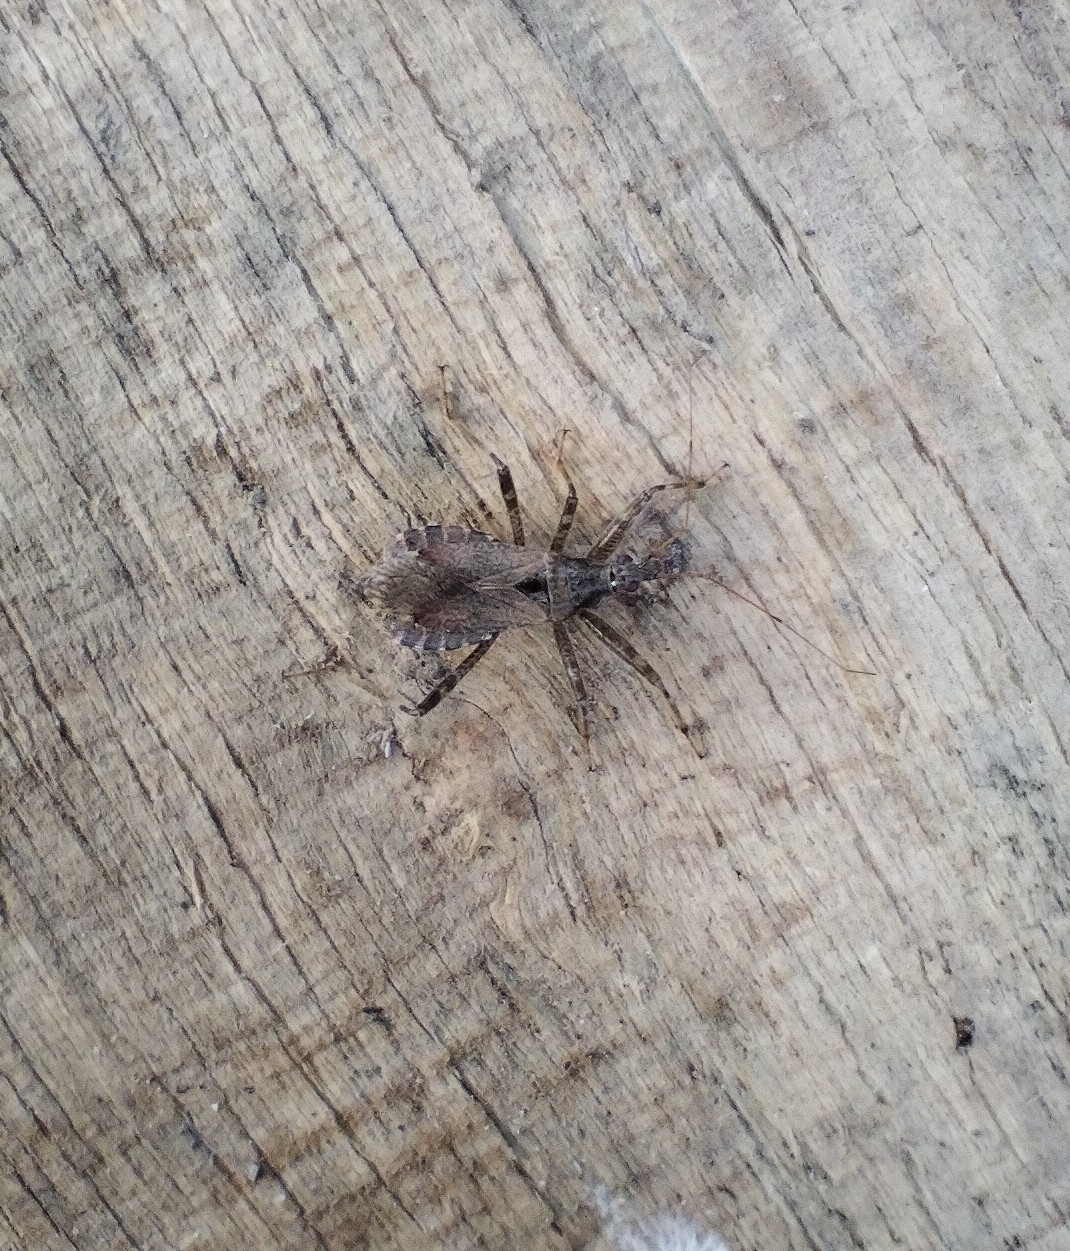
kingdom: Animalia
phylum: Arthropoda
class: Insecta
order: Hemiptera
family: Nabidae
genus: Himacerus
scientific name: Himacerus apterus
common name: Tree damsel bug
